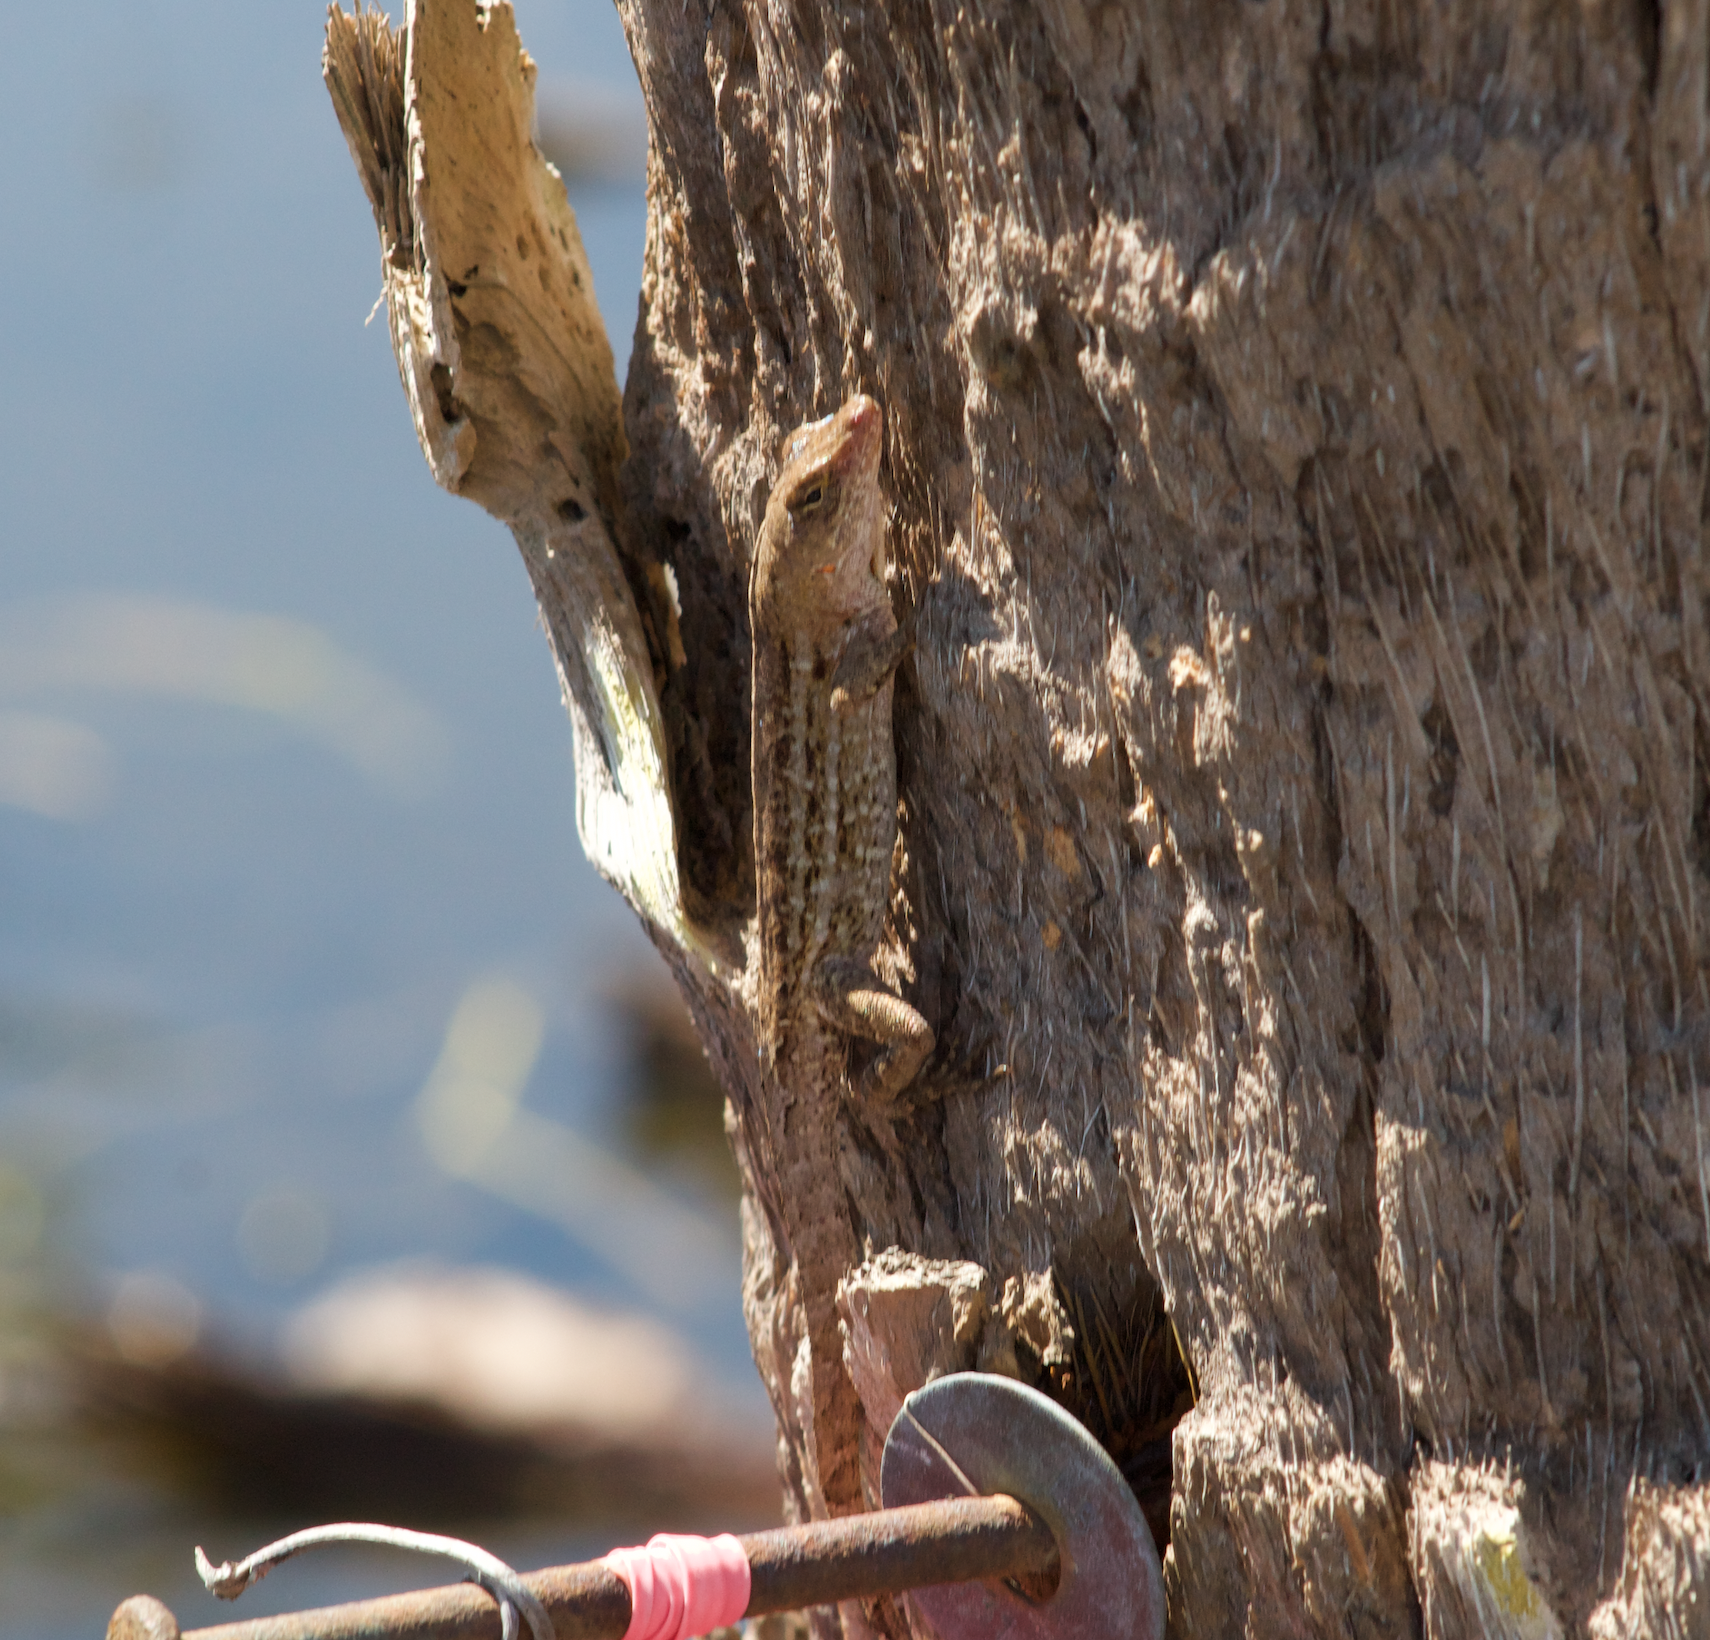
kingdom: Animalia
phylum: Chordata
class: Squamata
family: Dactyloidae
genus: Anolis
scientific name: Anolis sagrei
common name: Brown anole
